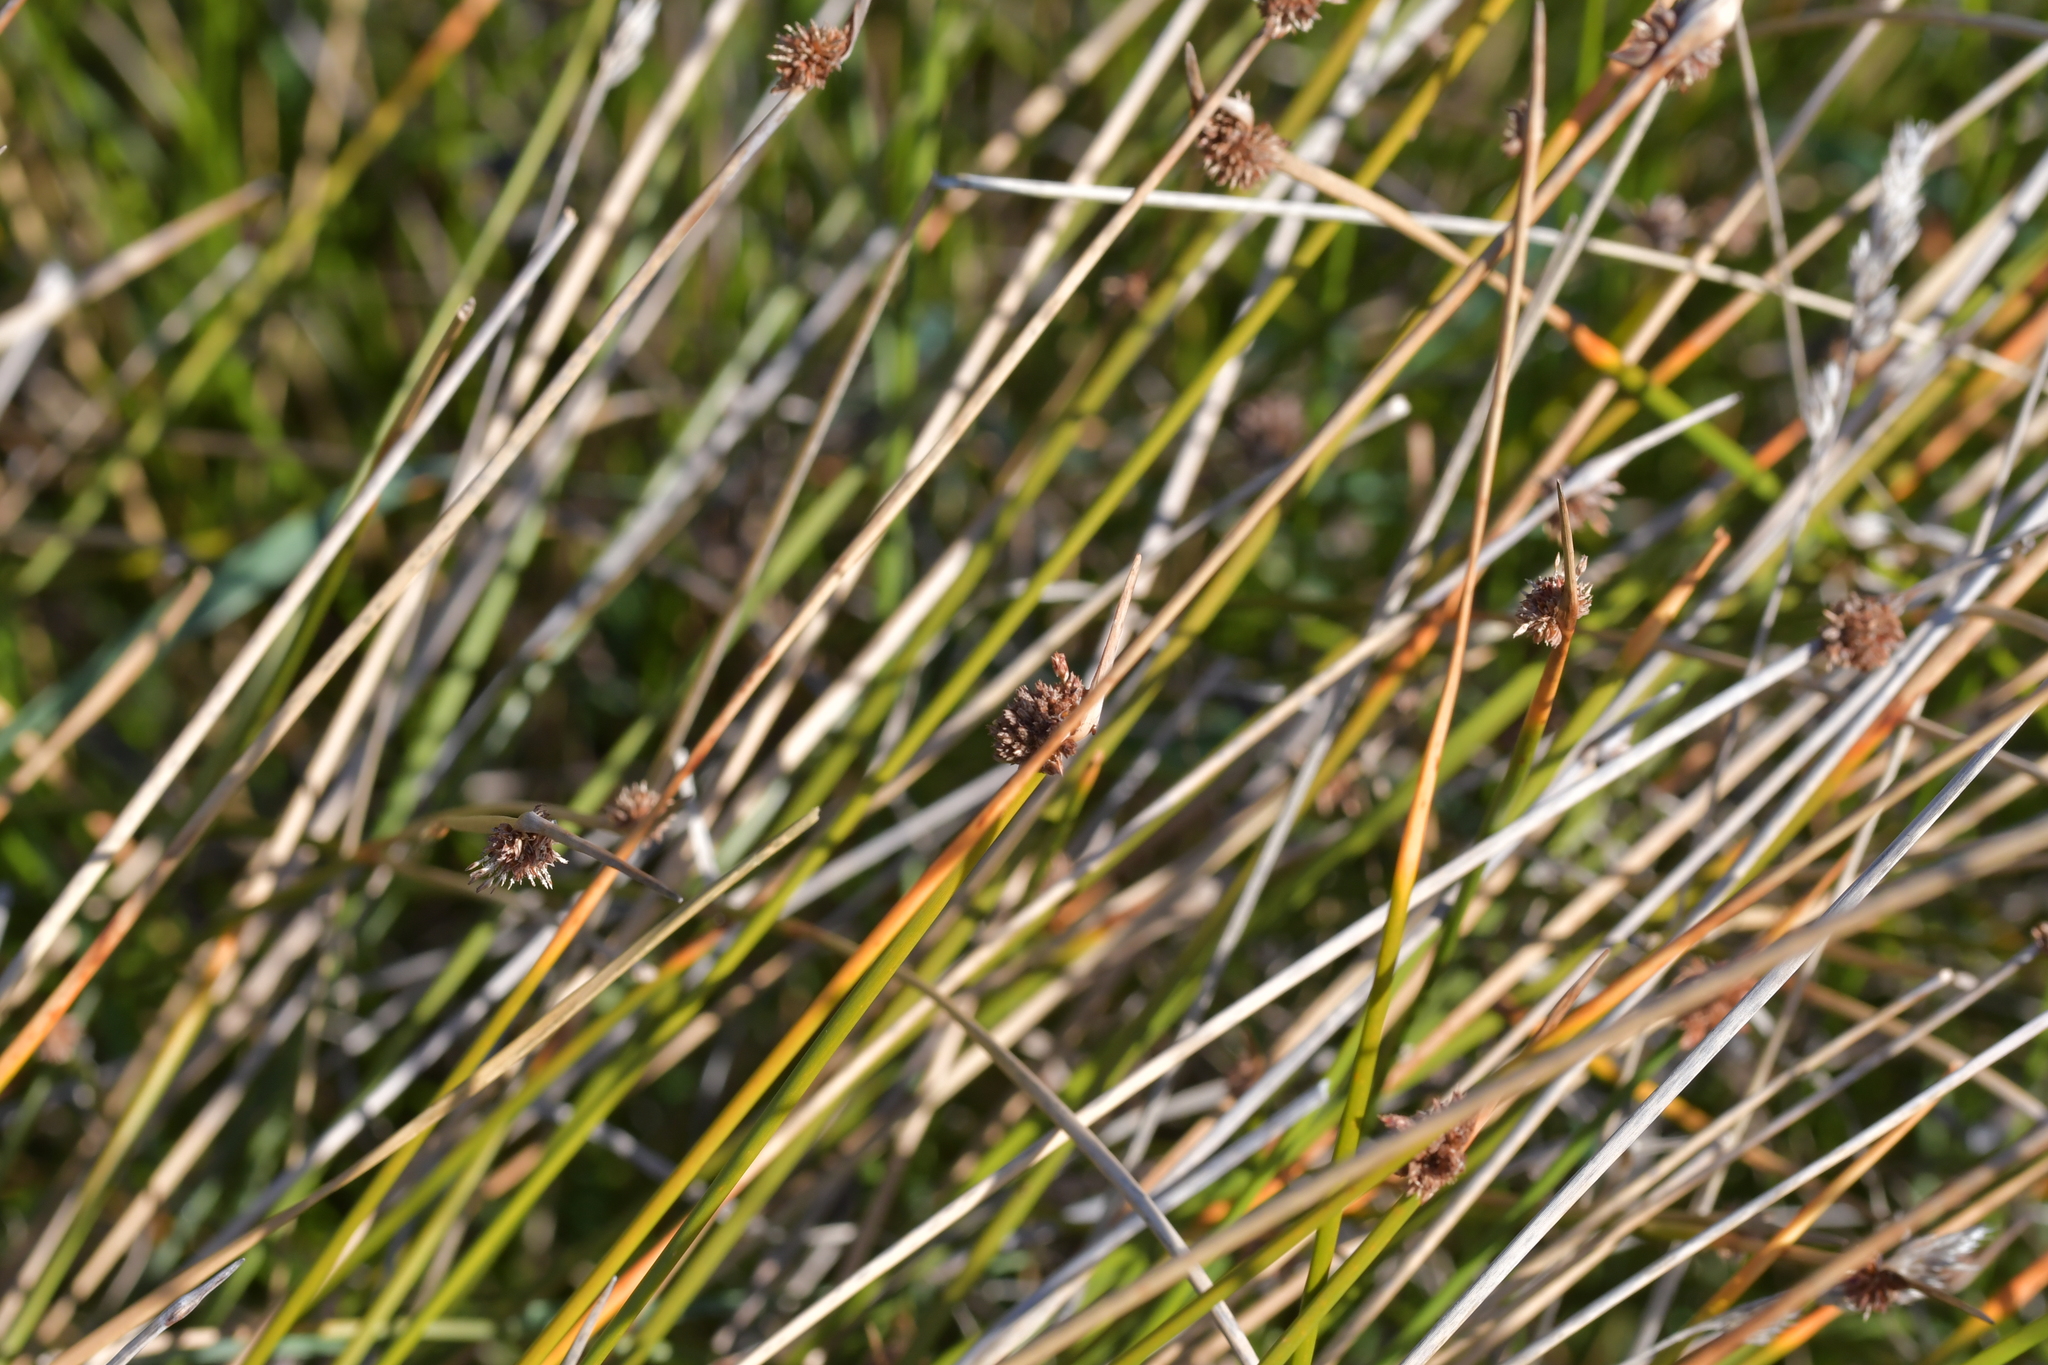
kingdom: Plantae
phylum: Tracheophyta
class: Liliopsida
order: Poales
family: Cyperaceae
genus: Ficinia
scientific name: Ficinia nodosa
